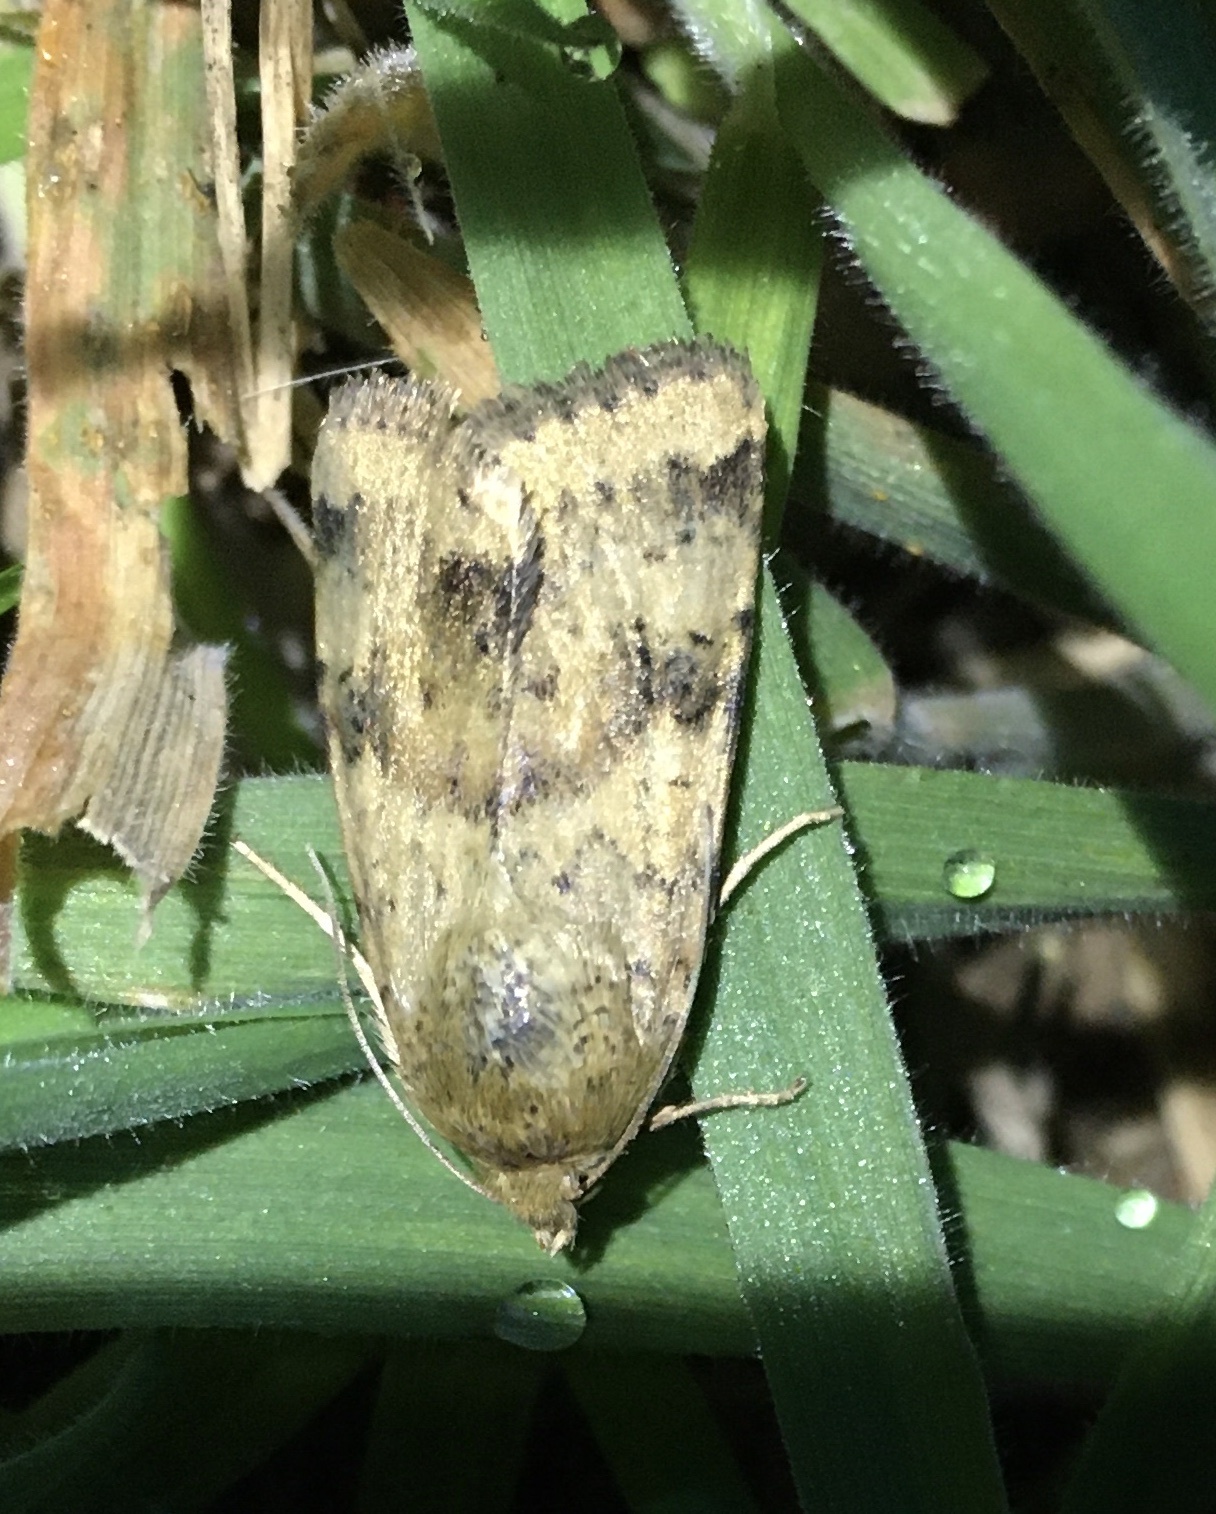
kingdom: Animalia
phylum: Arthropoda
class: Insecta
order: Lepidoptera
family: Noctuidae
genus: Heliothis
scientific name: Heliothis viriplaca
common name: Marbled clover
